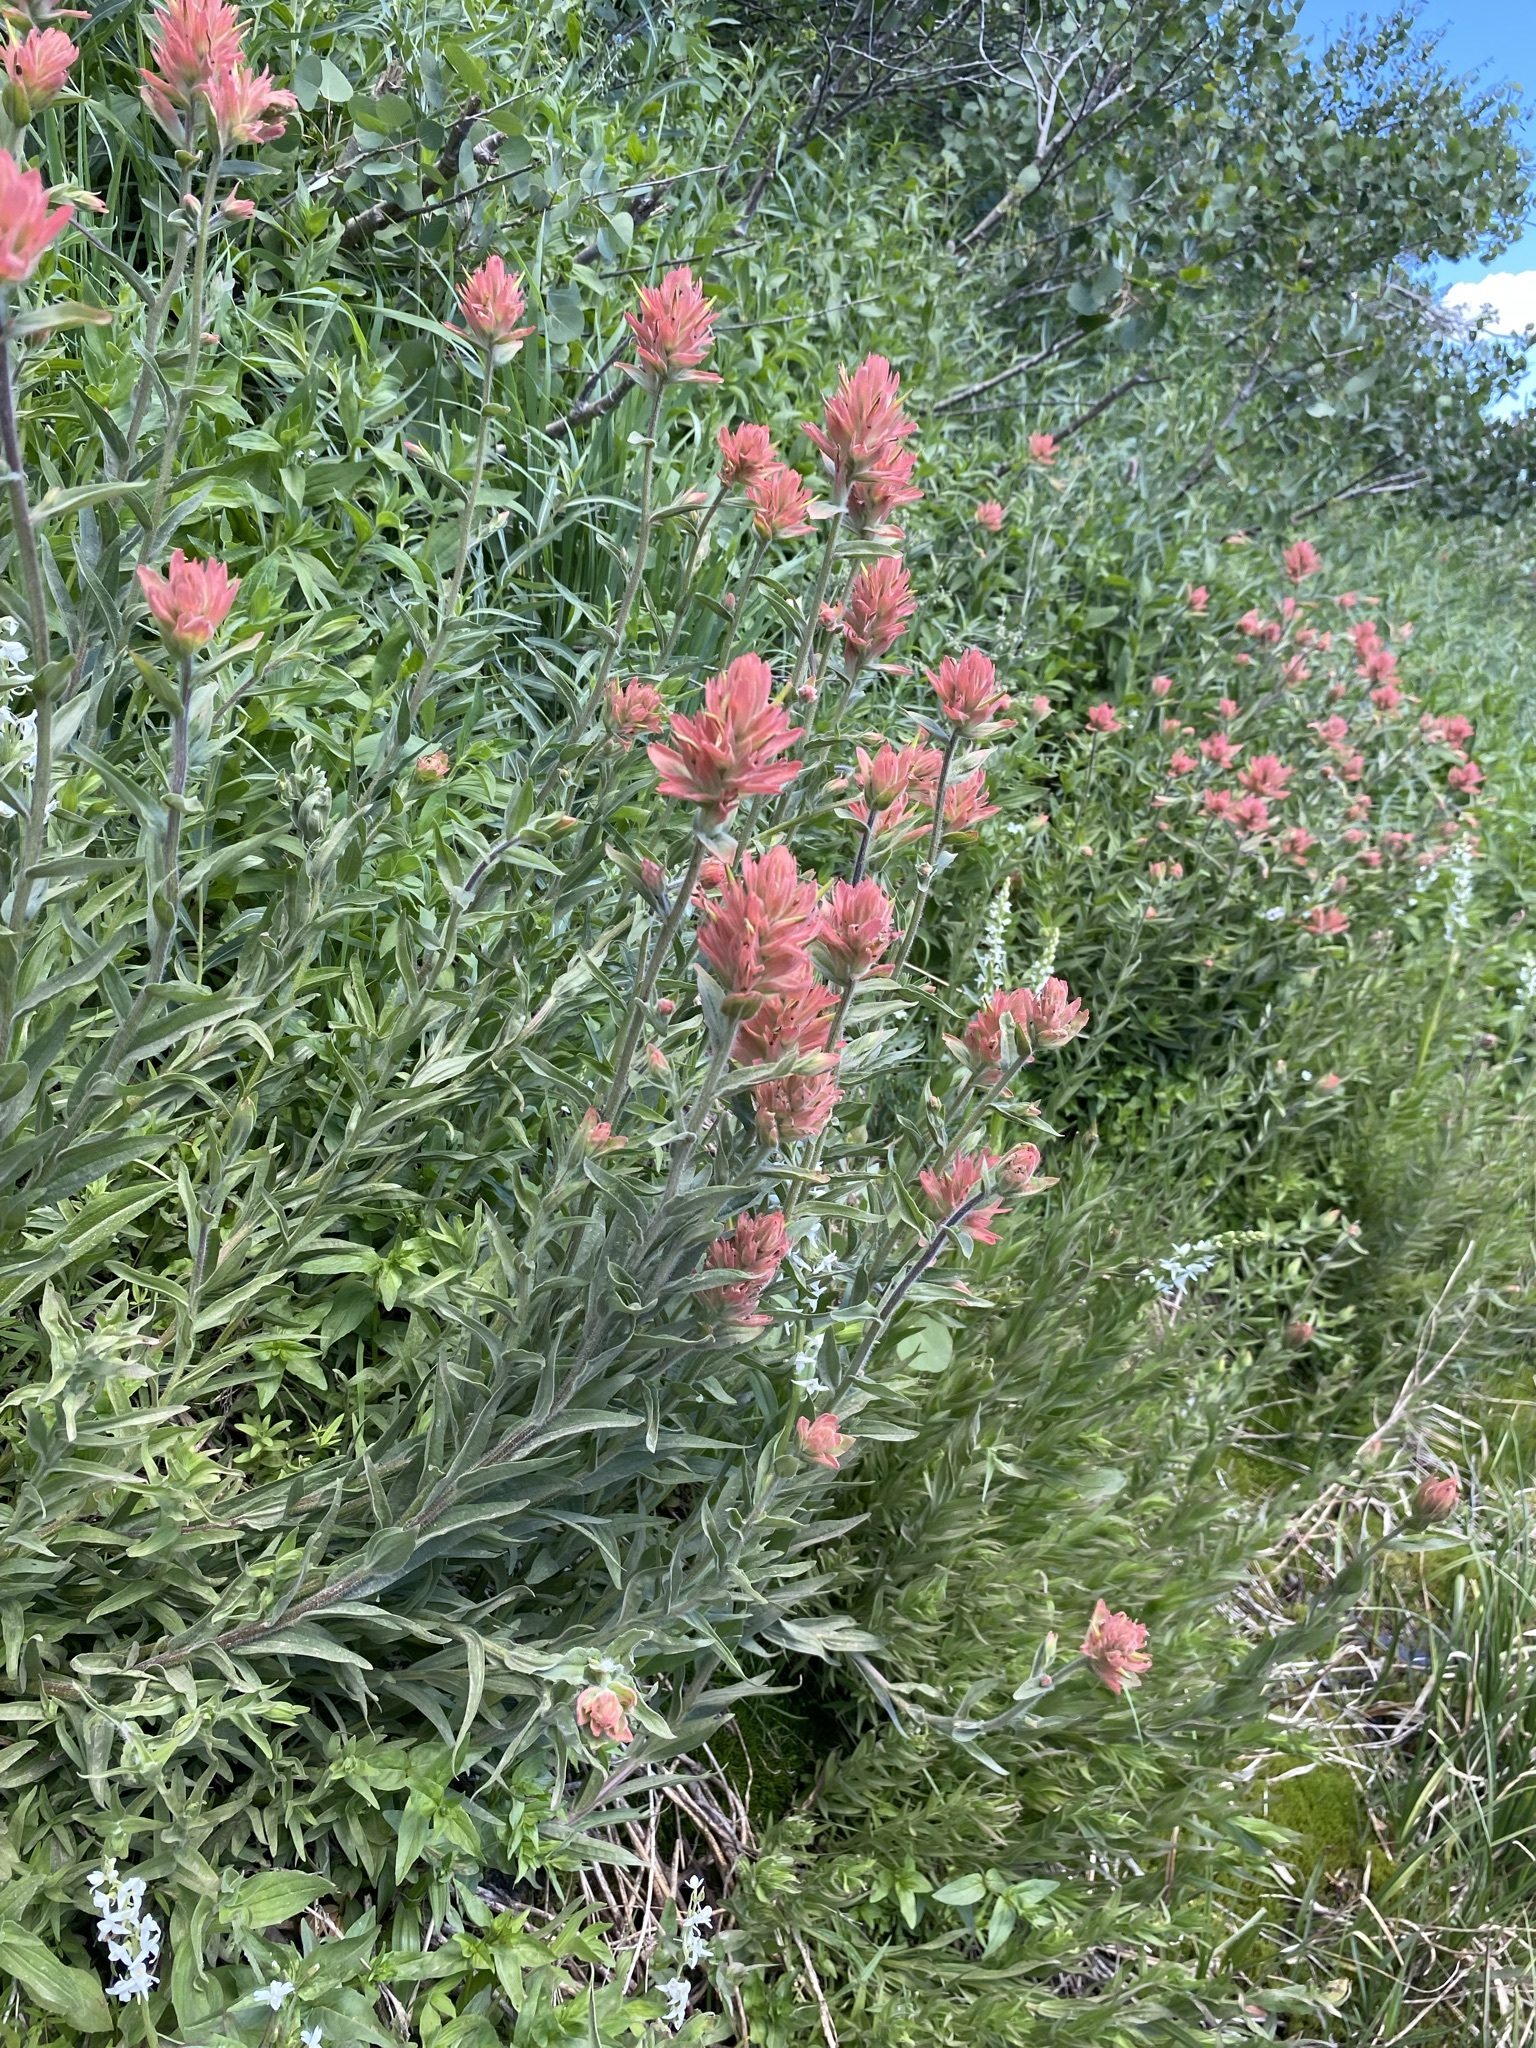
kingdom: Plantae
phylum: Tracheophyta
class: Magnoliopsida
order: Lamiales
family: Orobanchaceae
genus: Castilleja
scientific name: Castilleja miniata
